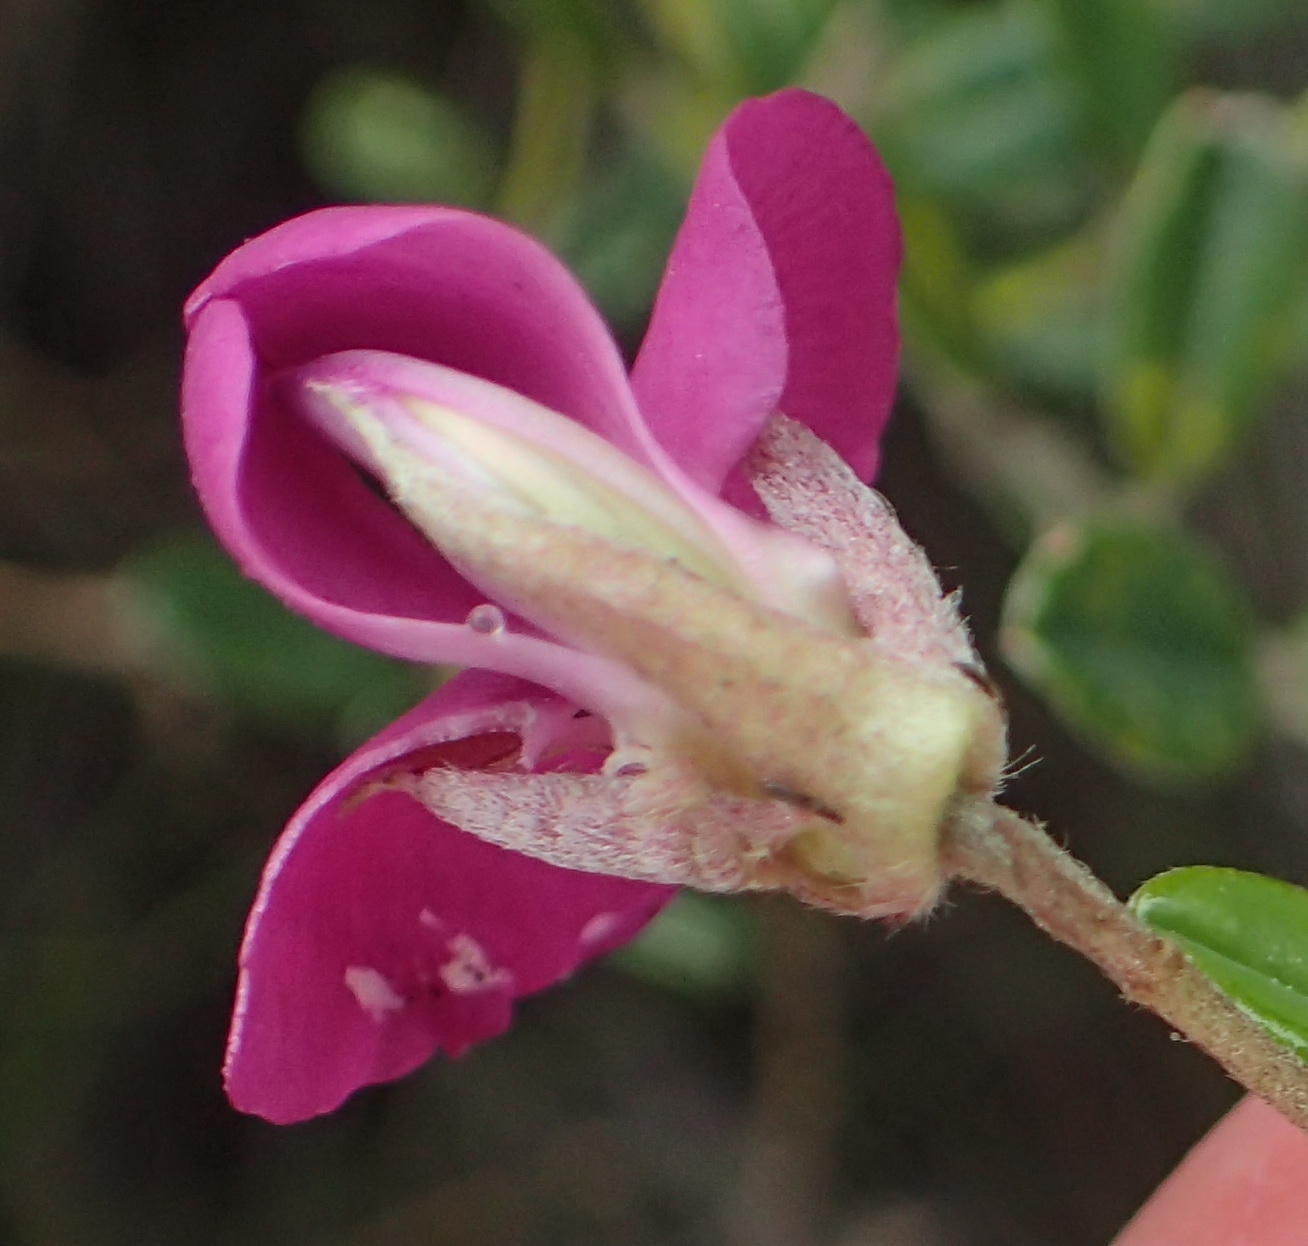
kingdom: Plantae
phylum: Tracheophyta
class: Magnoliopsida
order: Fabales
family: Fabaceae
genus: Podalyria
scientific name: Podalyria buxifolia
